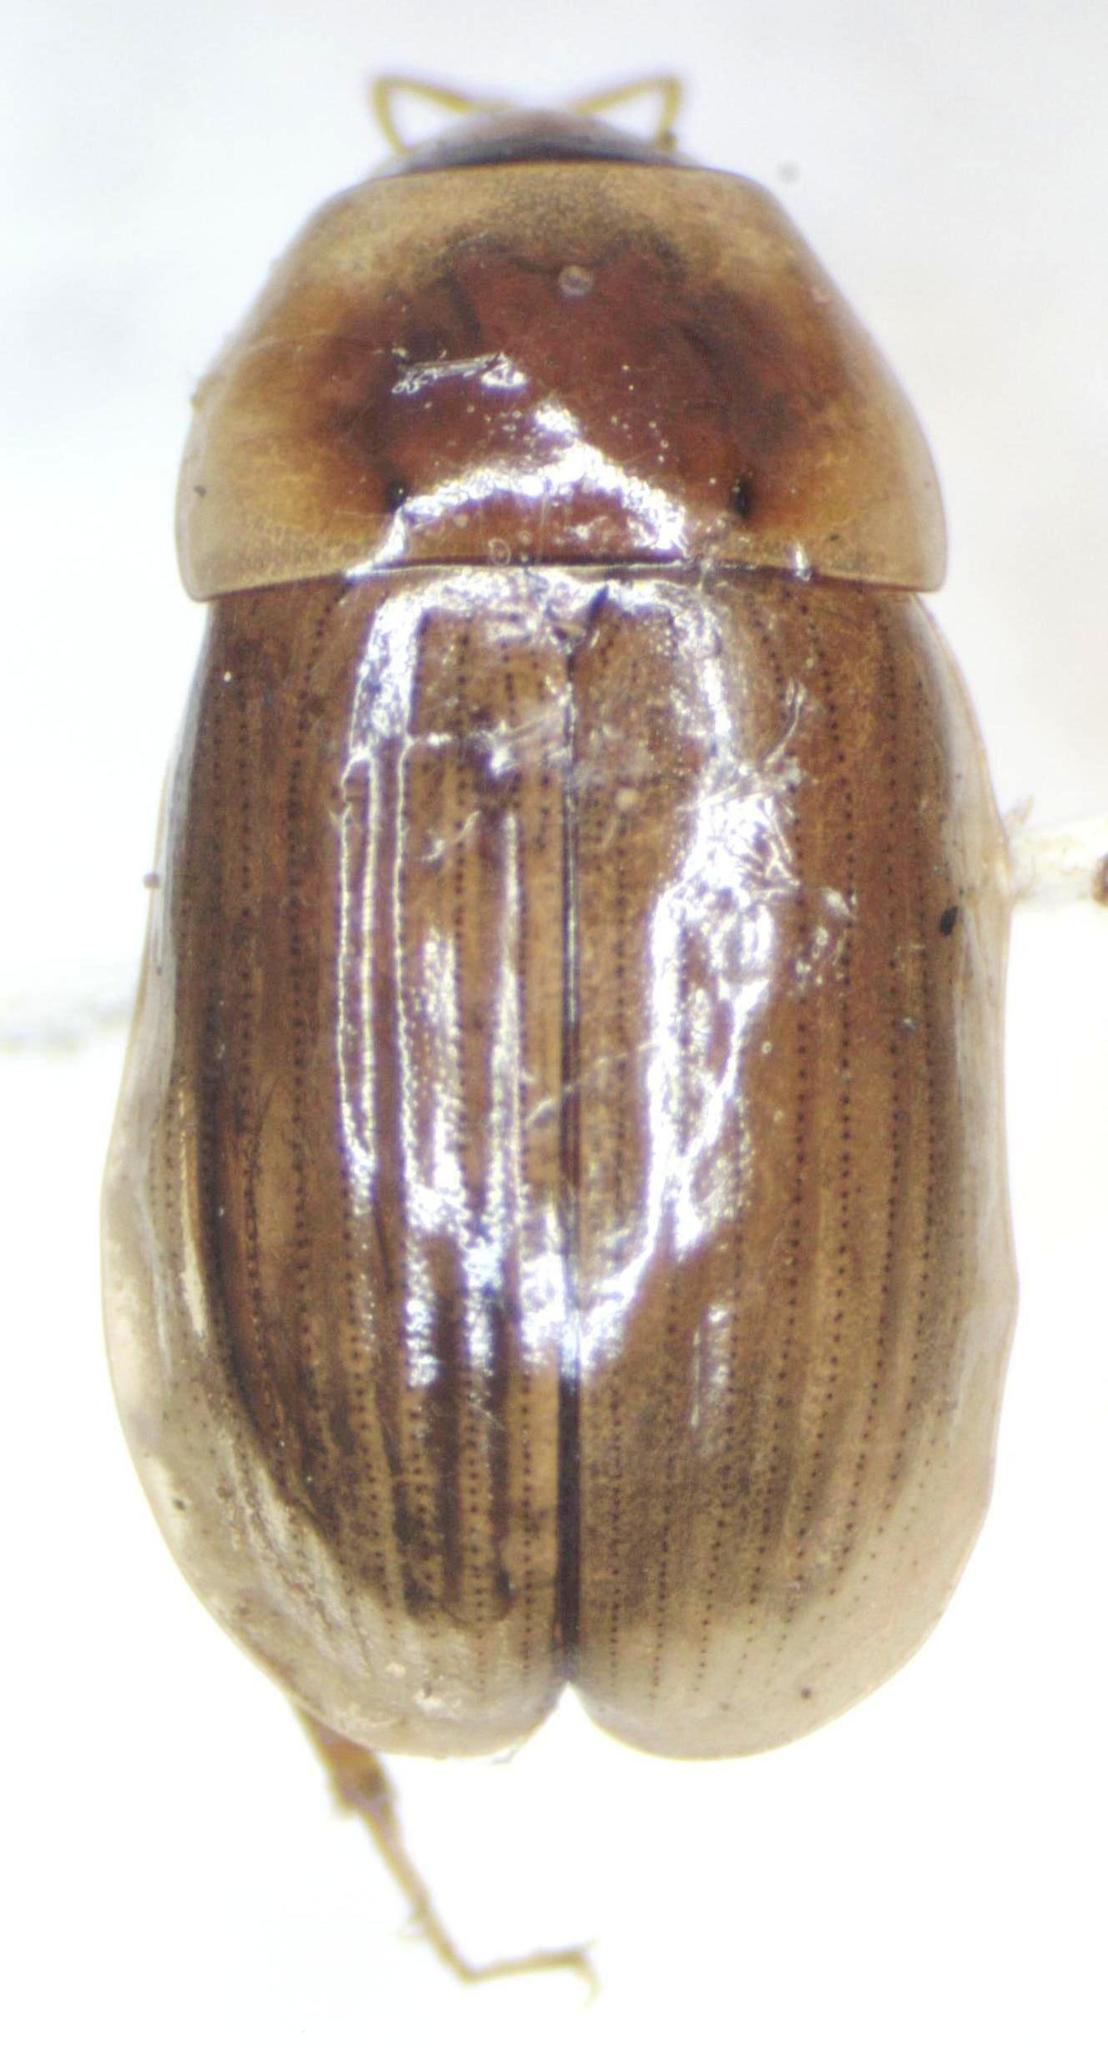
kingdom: Animalia
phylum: Arthropoda
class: Insecta
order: Coleoptera
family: Hydrophilidae
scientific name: Hydrophilidae
